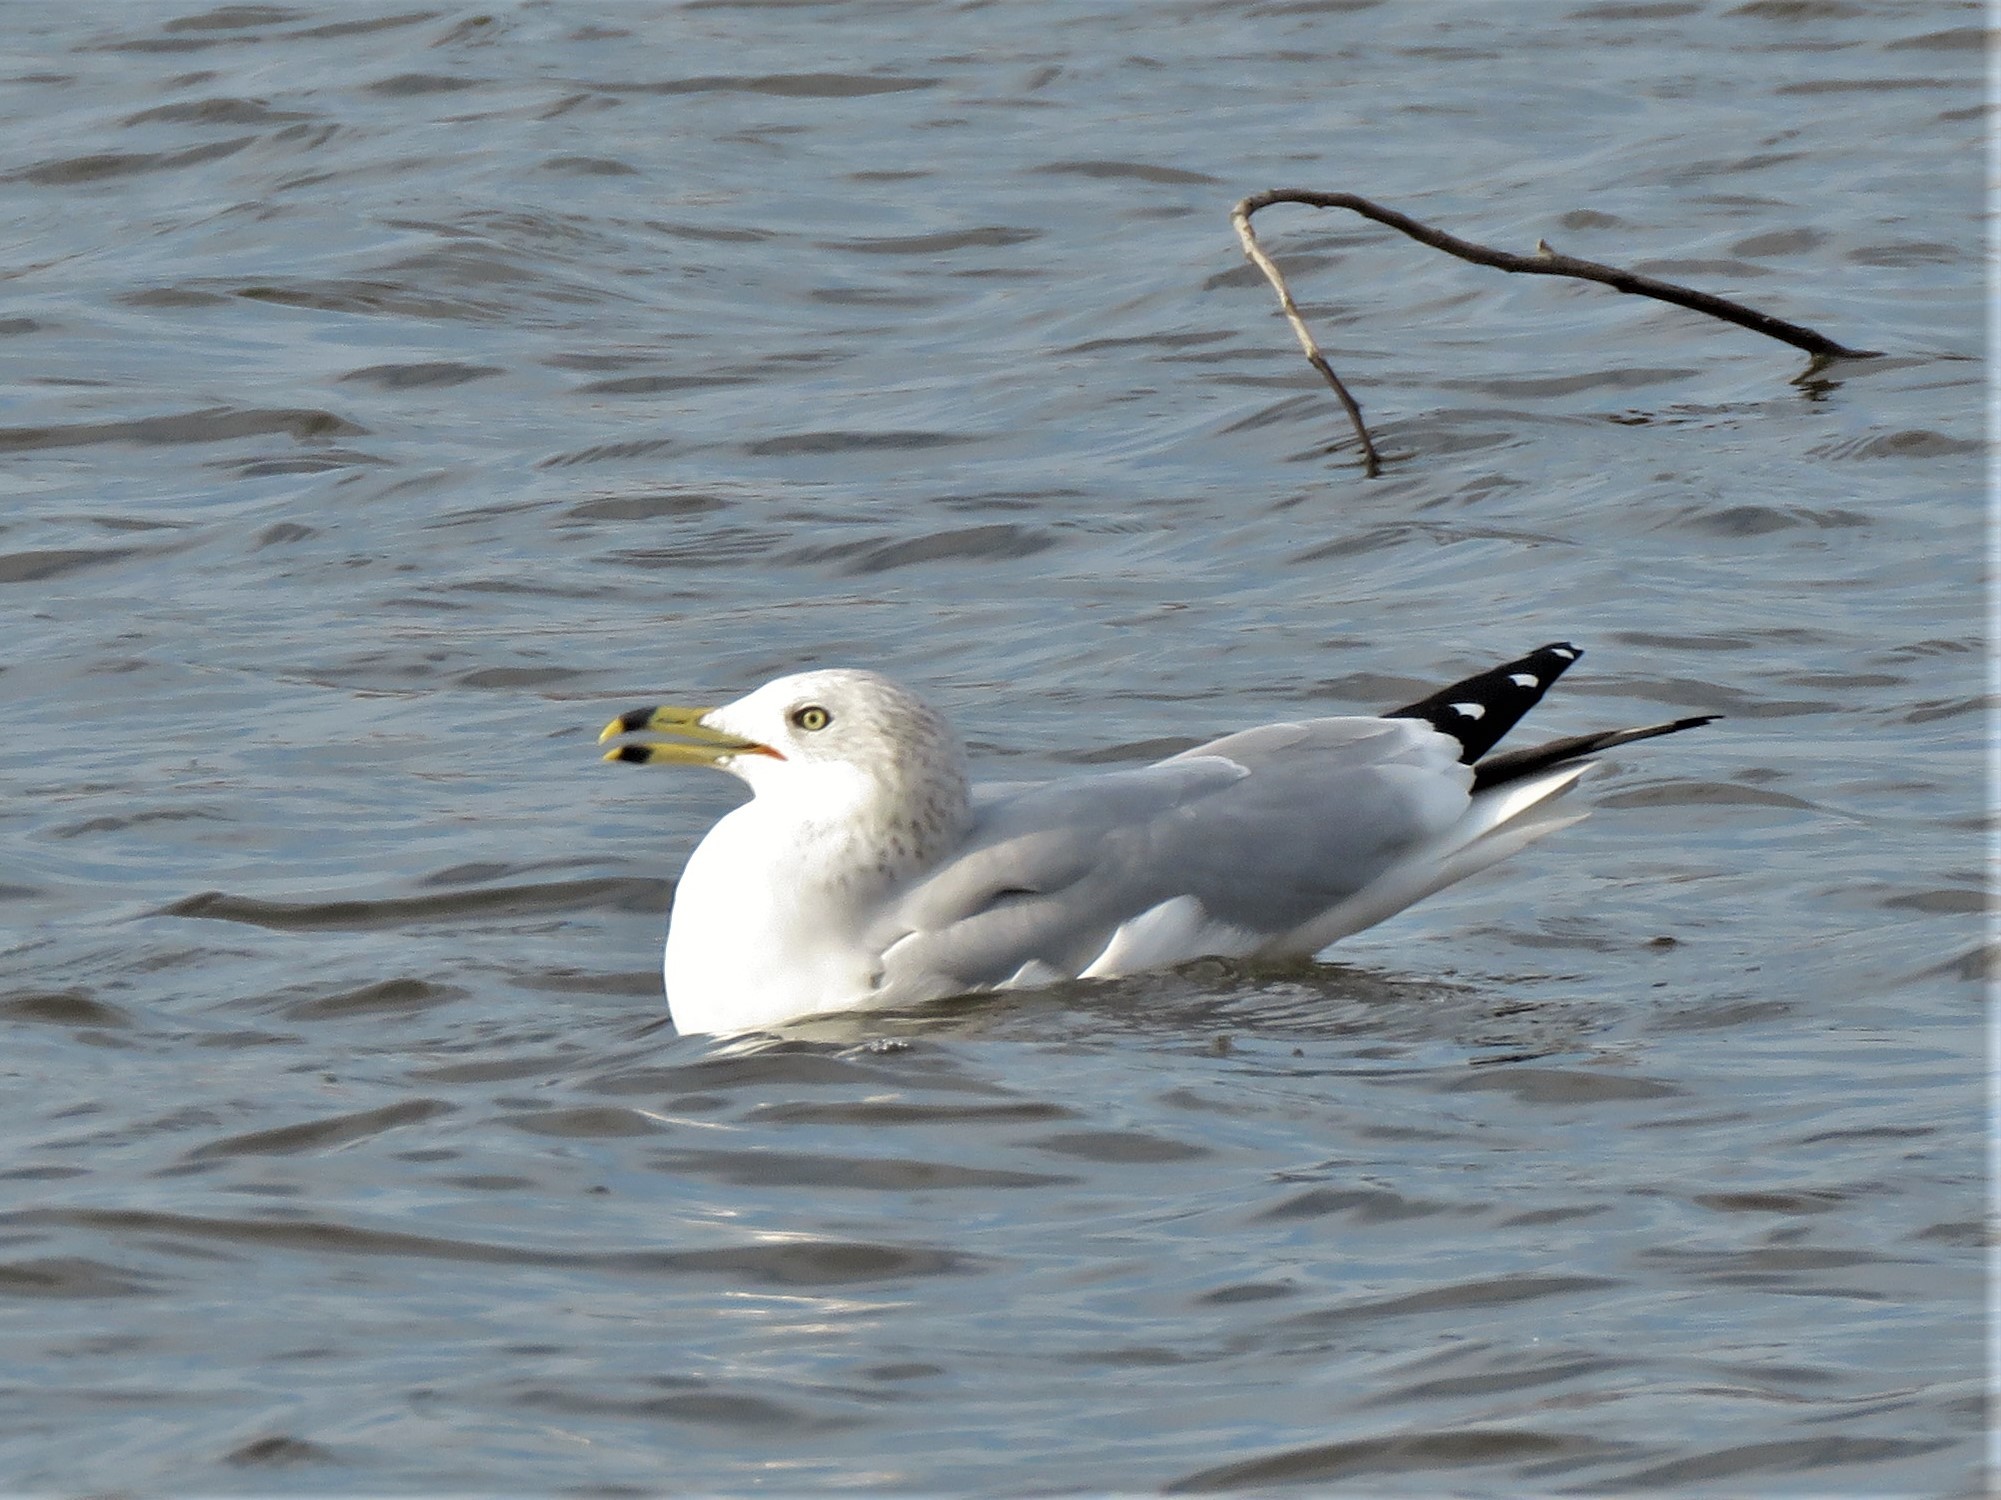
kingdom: Animalia
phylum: Chordata
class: Aves
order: Charadriiformes
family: Laridae
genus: Larus
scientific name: Larus delawarensis
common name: Ring-billed gull
